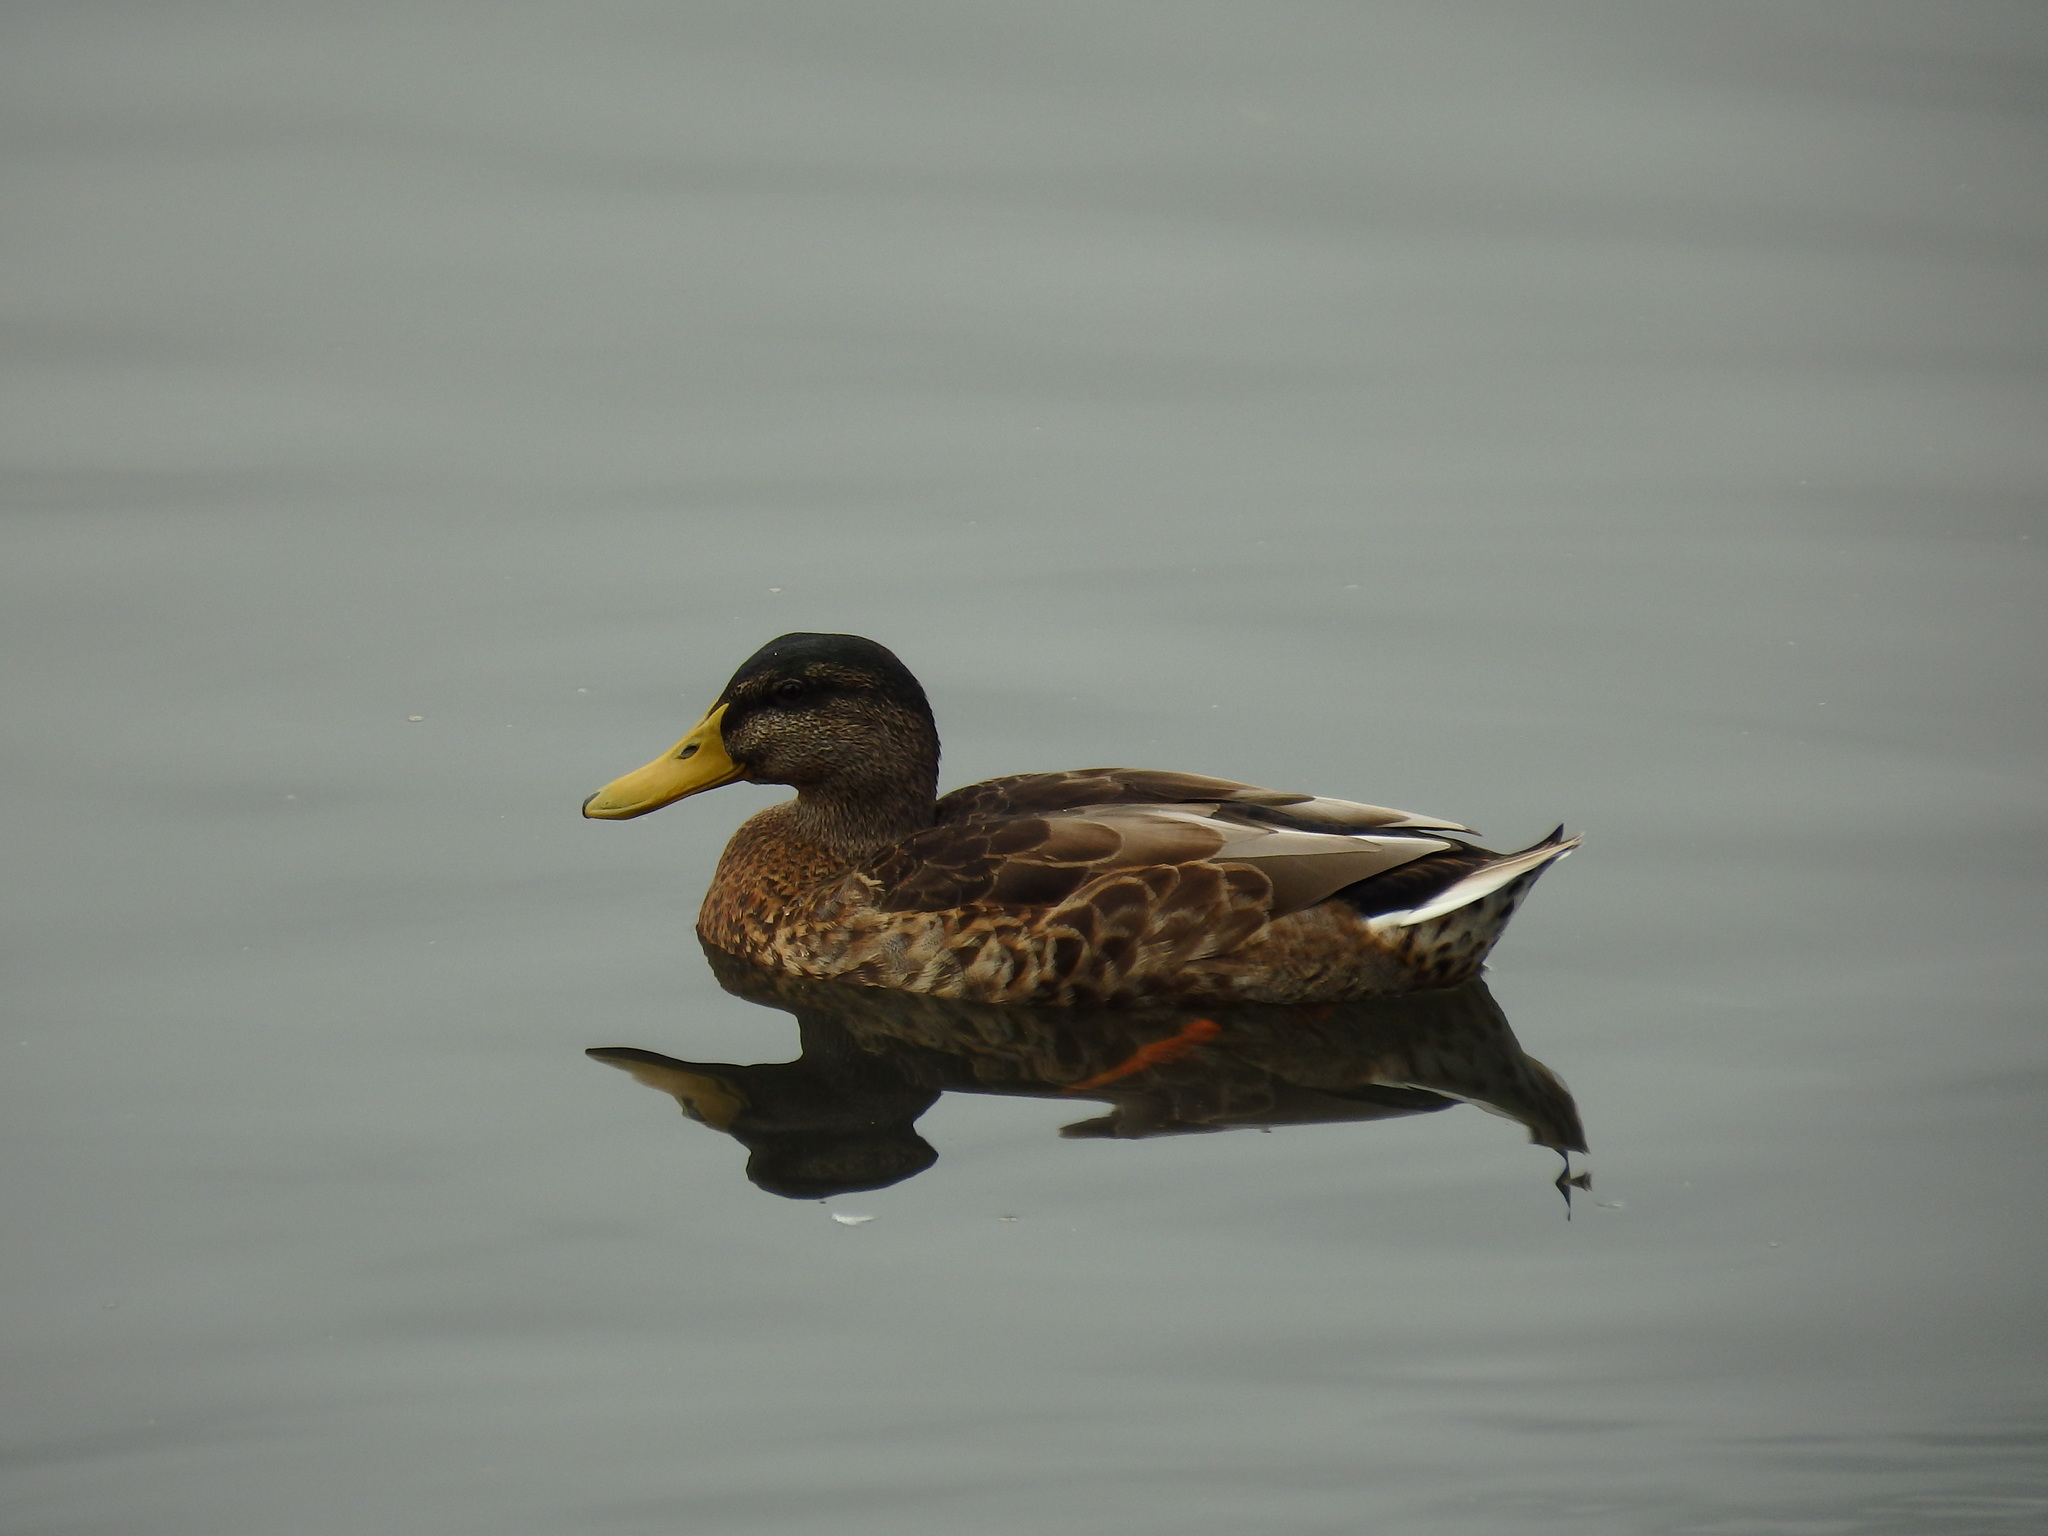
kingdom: Animalia
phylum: Chordata
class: Aves
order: Anseriformes
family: Anatidae
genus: Anas
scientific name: Anas platyrhynchos
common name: Mallard
